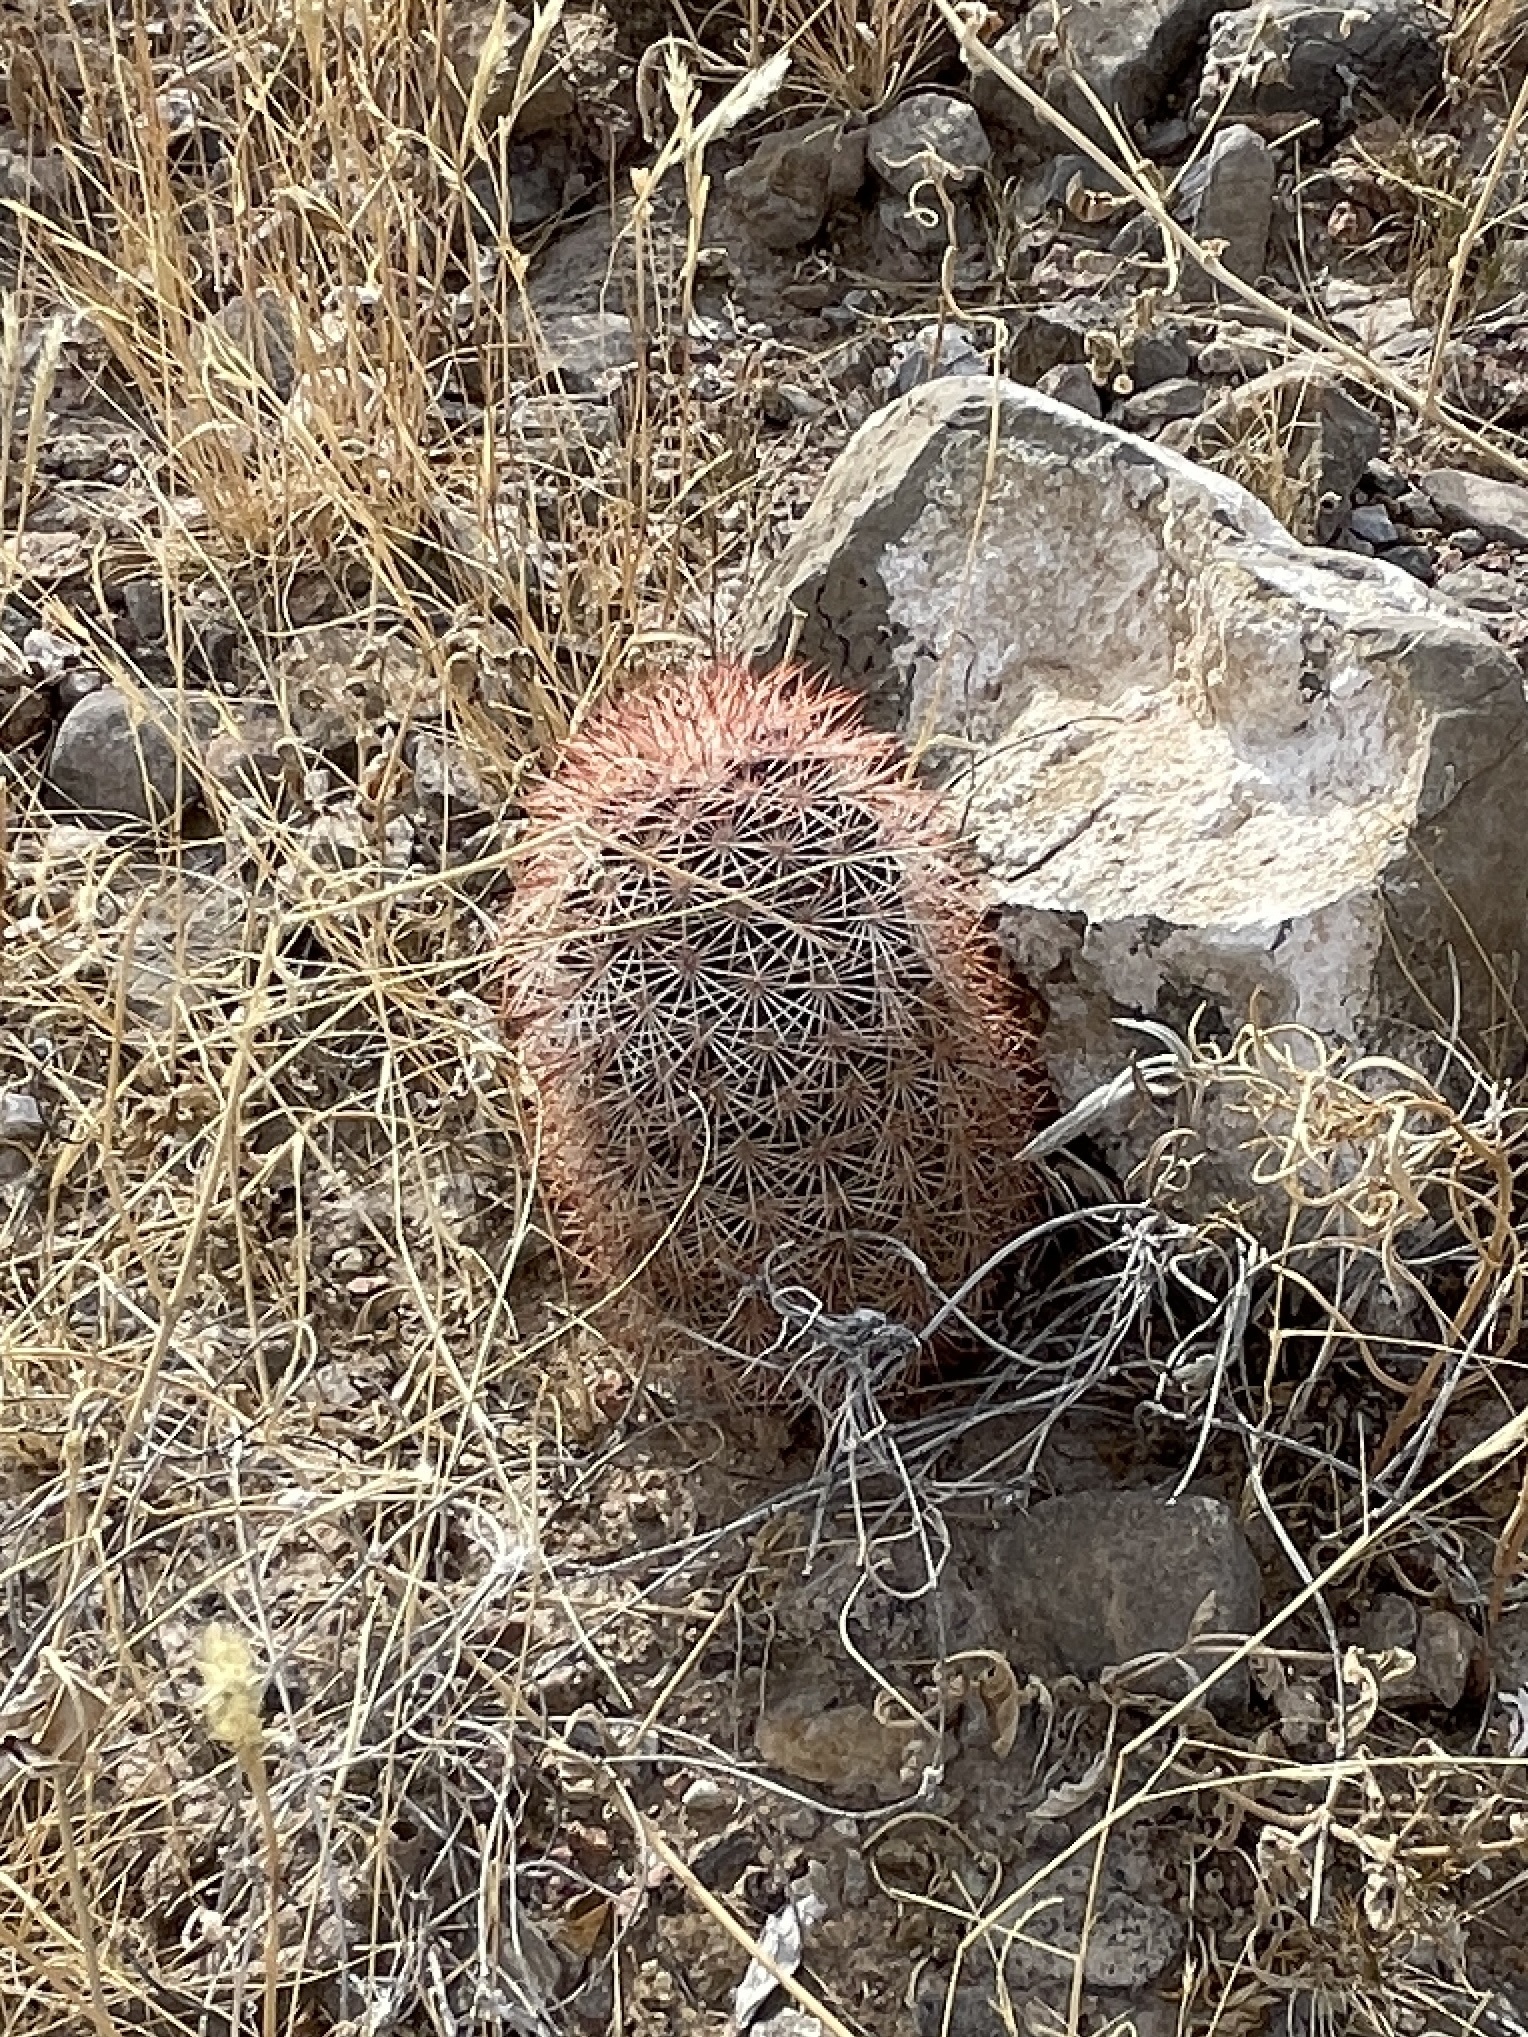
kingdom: Plantae
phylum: Tracheophyta
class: Magnoliopsida
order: Caryophyllales
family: Cactaceae
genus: Echinocereus
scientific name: Echinocereus dasyacanthus
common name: Spiny hedgehog cactus
